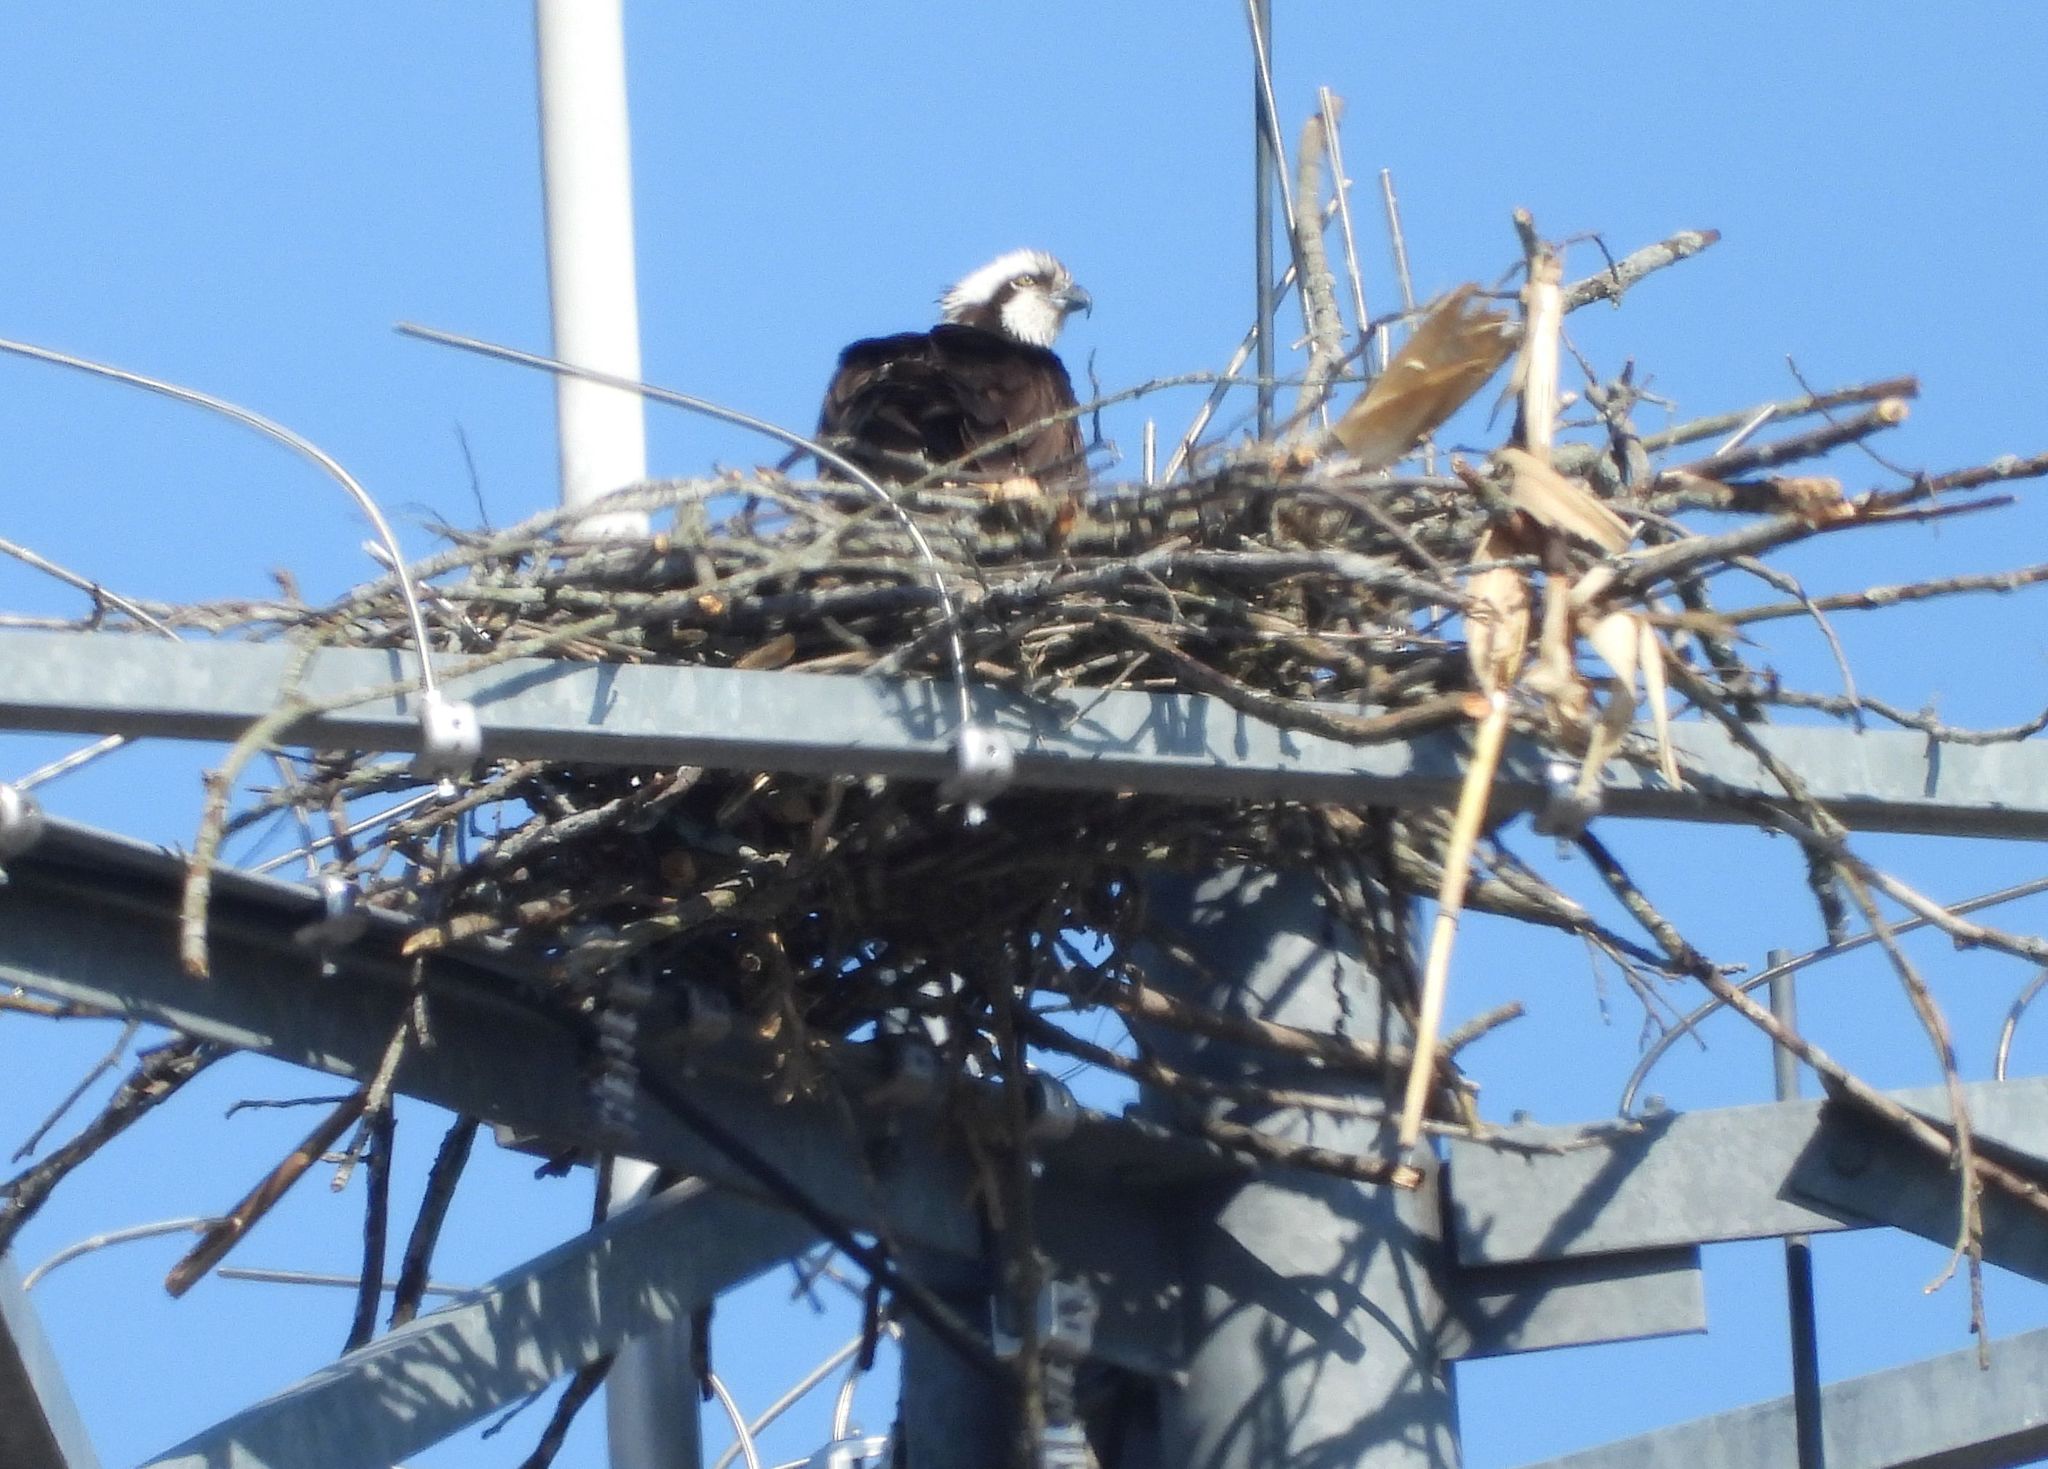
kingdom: Animalia
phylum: Chordata
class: Aves
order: Accipitriformes
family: Pandionidae
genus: Pandion
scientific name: Pandion haliaetus
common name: Osprey
